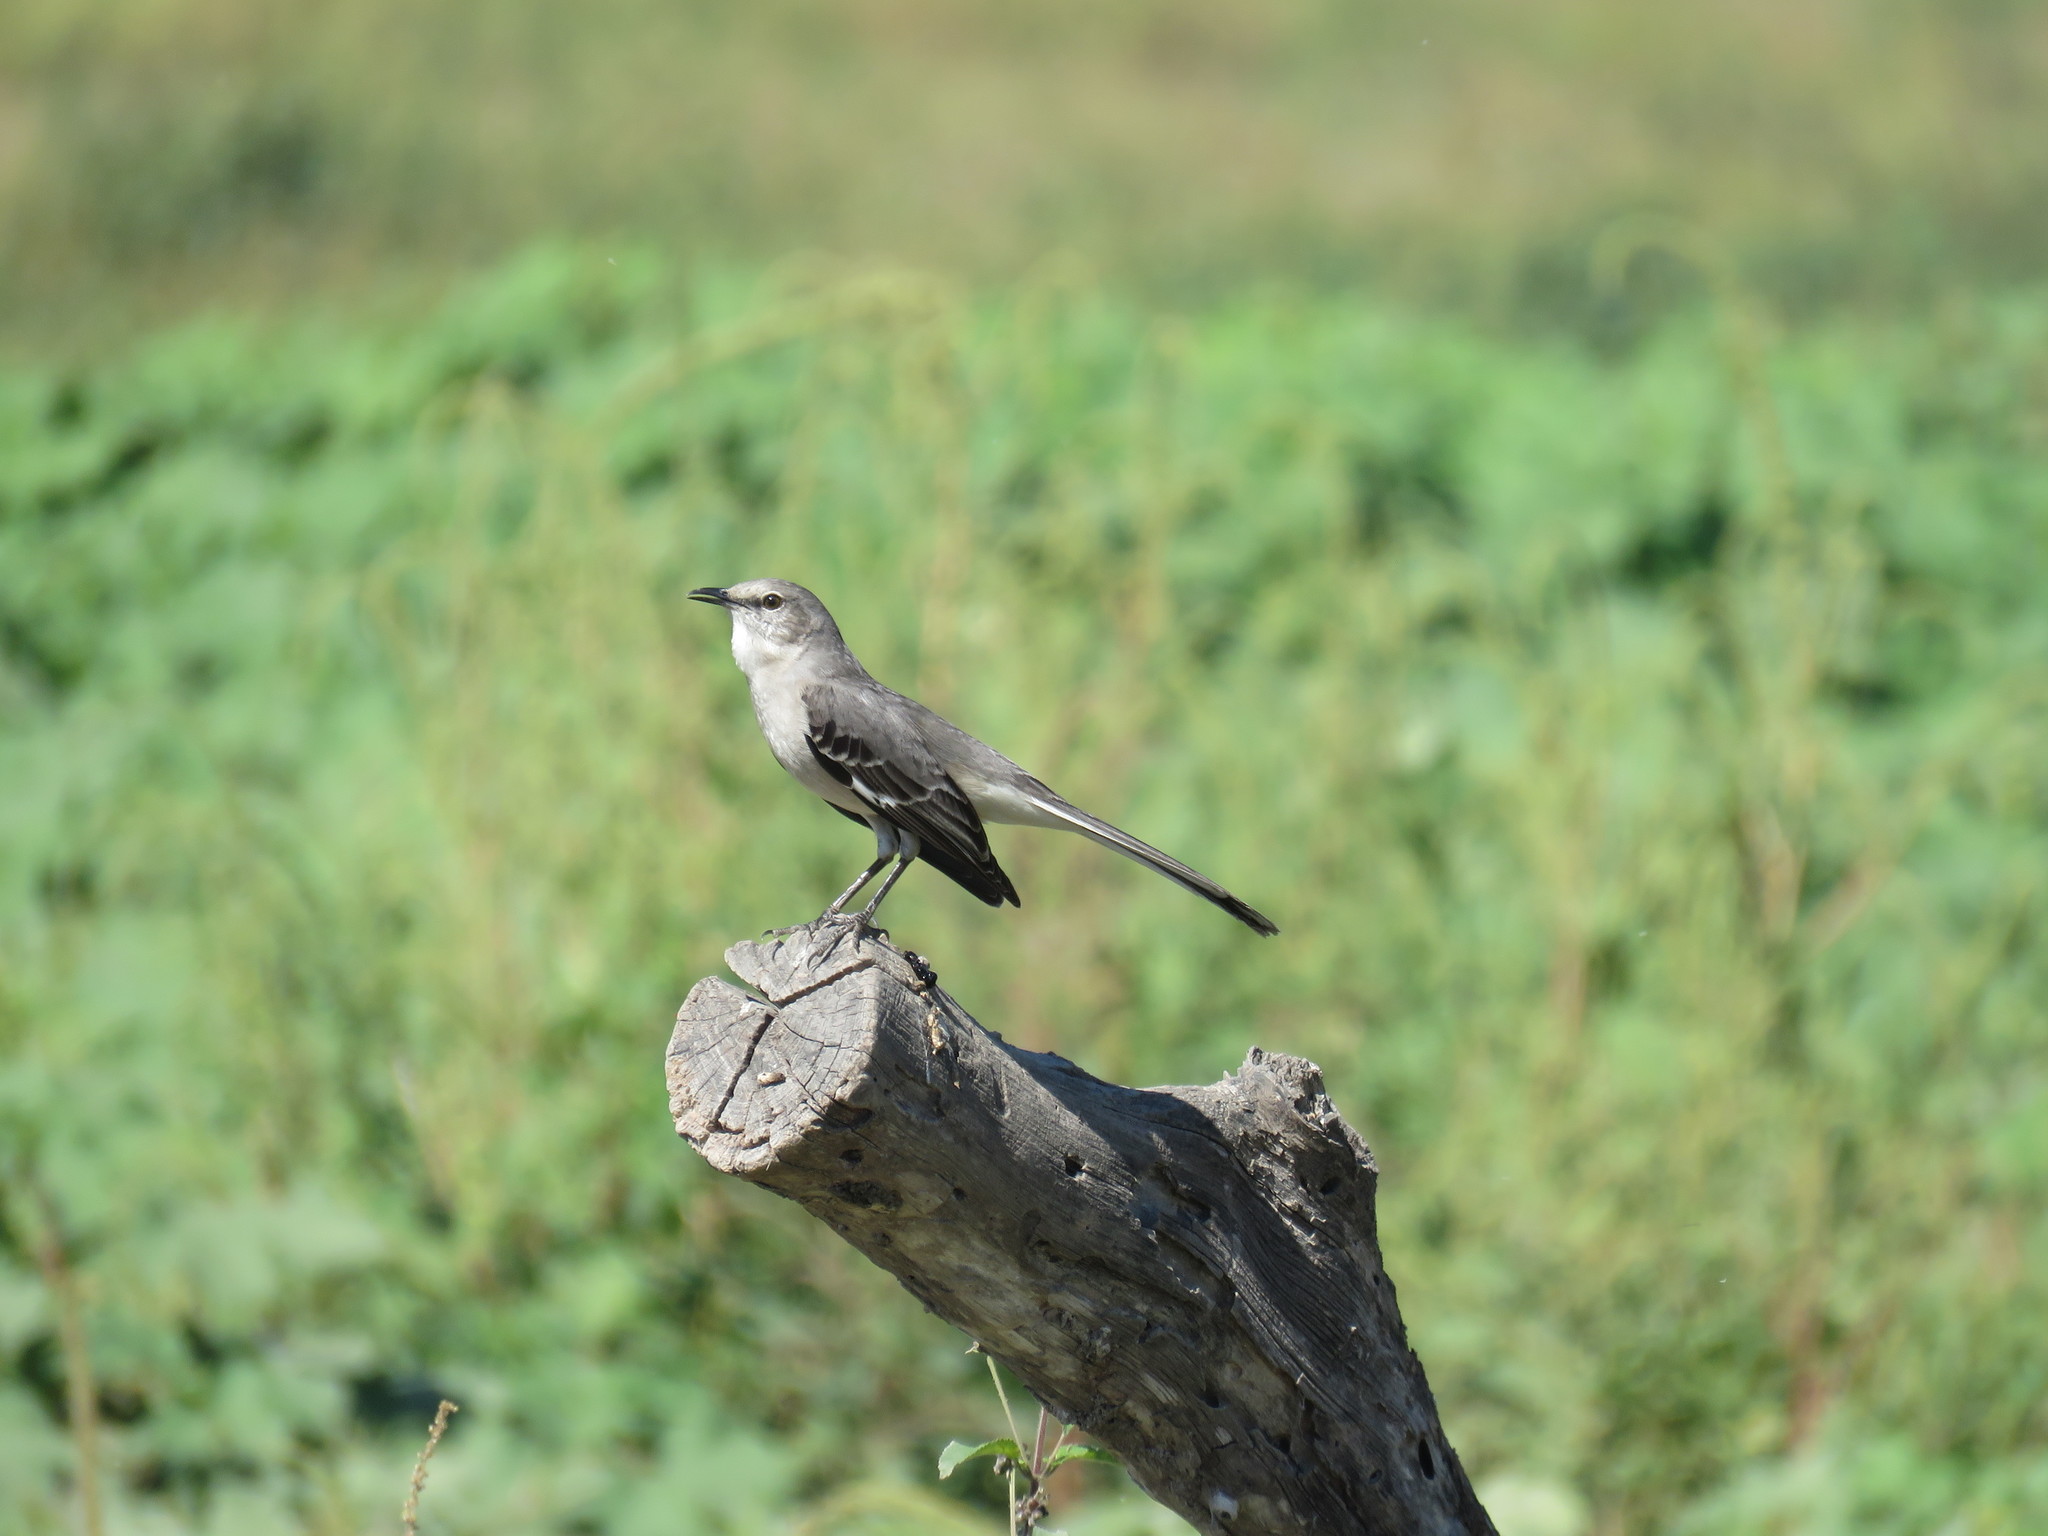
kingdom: Animalia
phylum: Chordata
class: Aves
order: Passeriformes
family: Mimidae
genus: Mimus
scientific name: Mimus polyglottos
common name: Northern mockingbird
